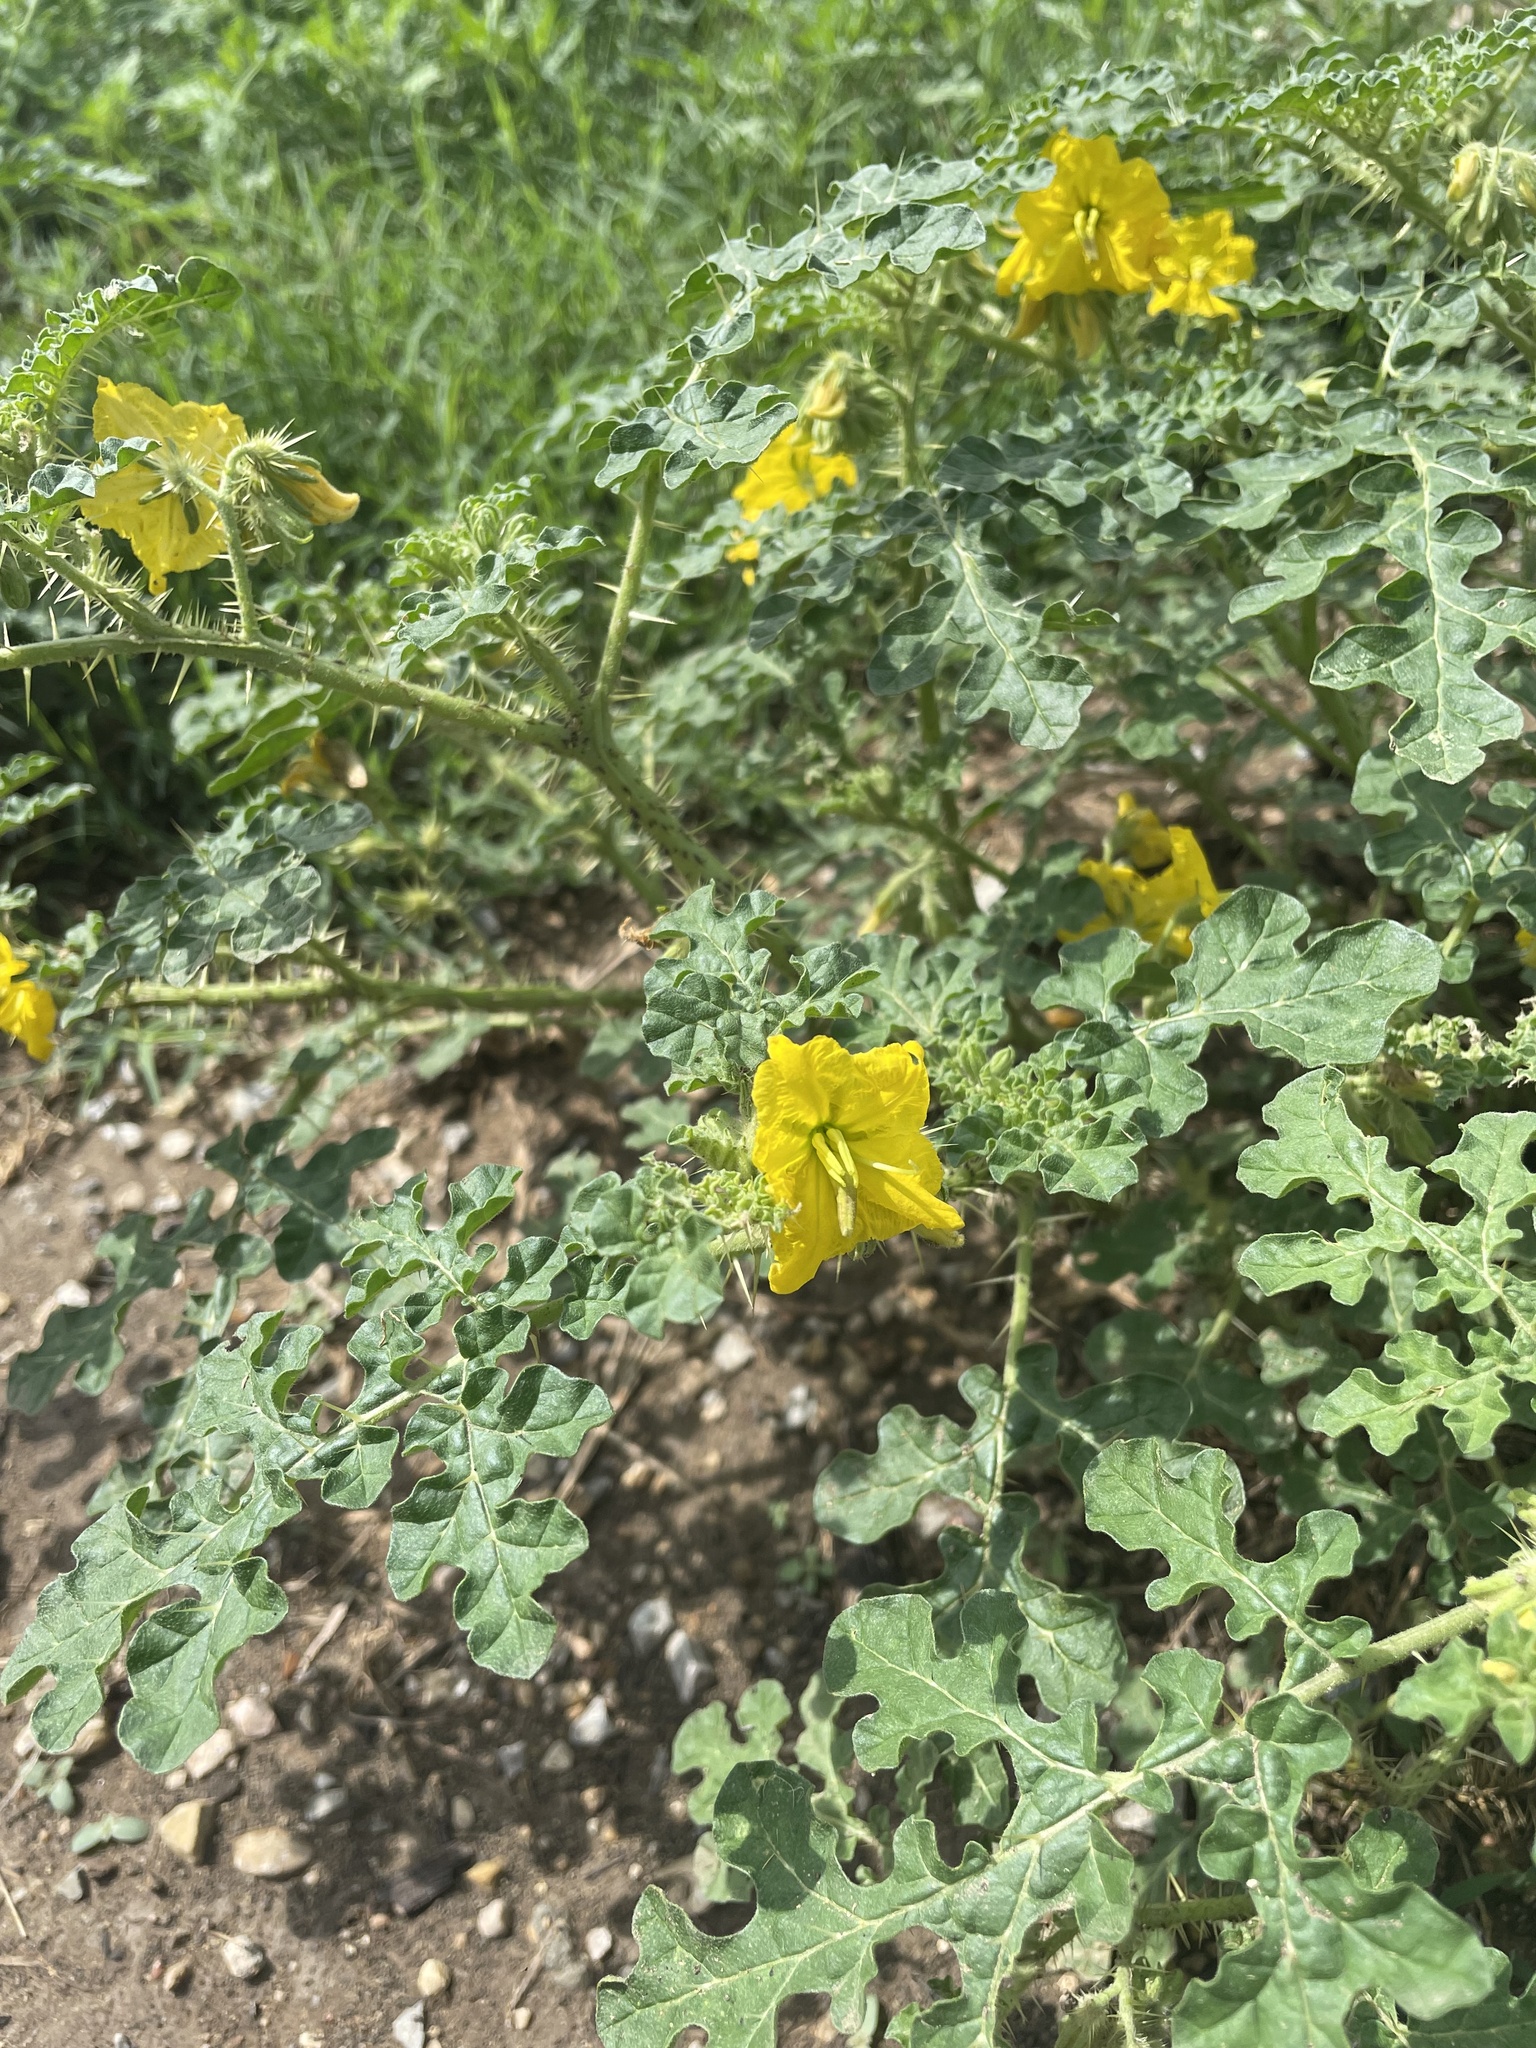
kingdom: Plantae
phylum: Tracheophyta
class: Magnoliopsida
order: Solanales
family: Solanaceae
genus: Solanum
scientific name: Solanum angustifolium
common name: Buffalobur nightshade
